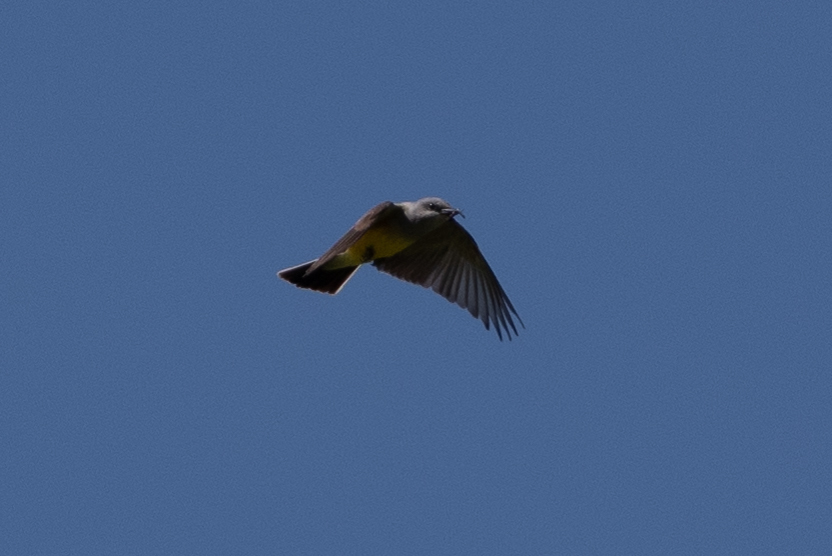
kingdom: Animalia
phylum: Chordata
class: Aves
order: Passeriformes
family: Tyrannidae
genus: Tyrannus
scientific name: Tyrannus verticalis
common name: Western kingbird
